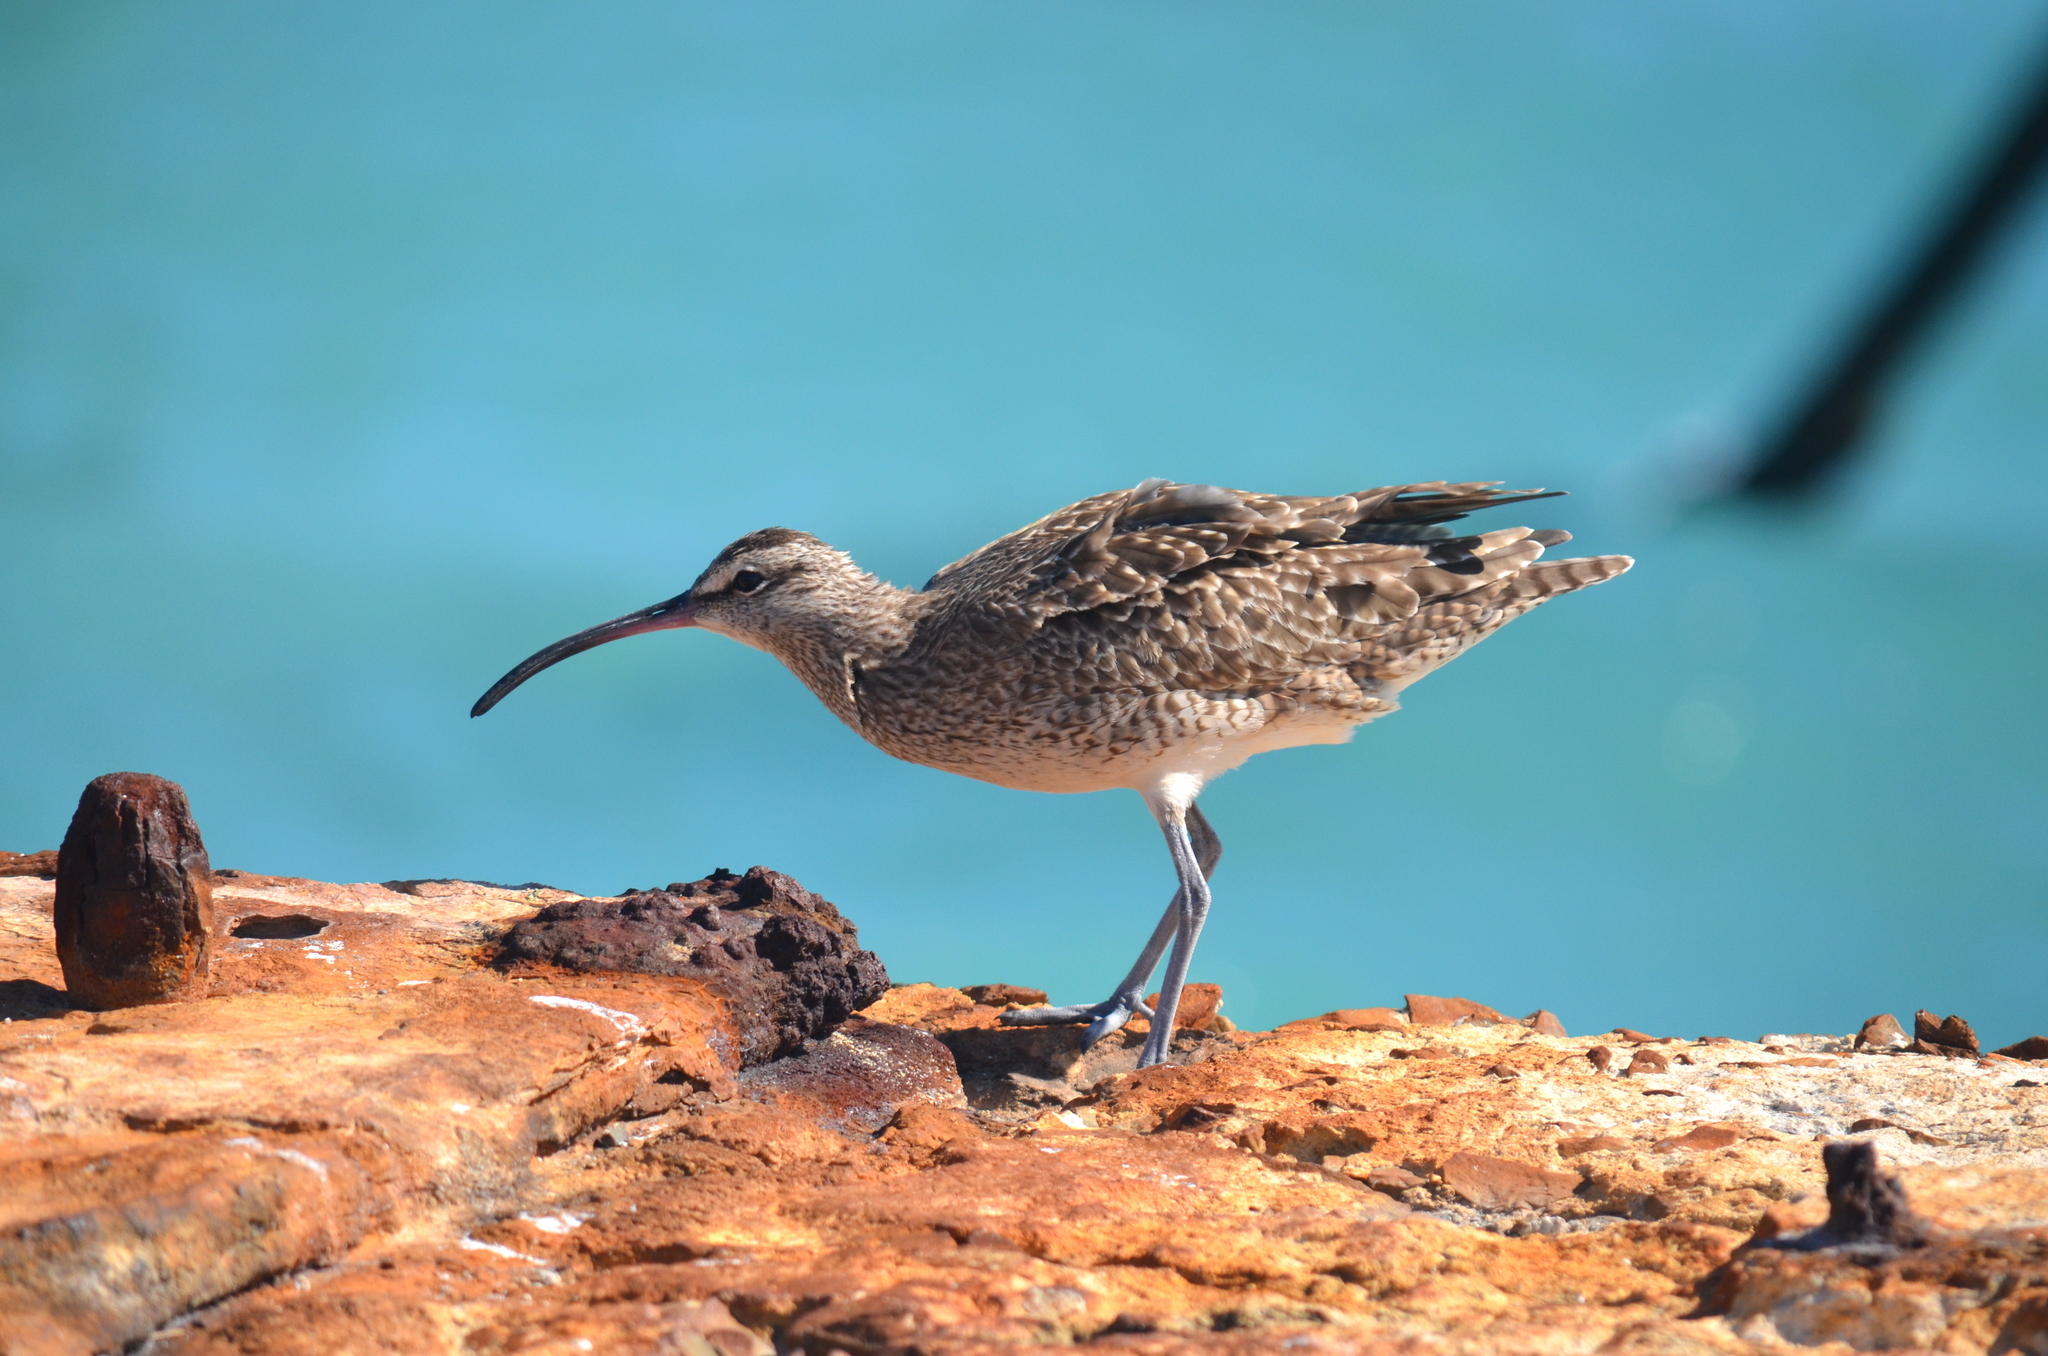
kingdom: Animalia
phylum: Chordata
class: Aves
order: Charadriiformes
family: Scolopacidae
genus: Numenius
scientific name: Numenius phaeopus
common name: Whimbrel
